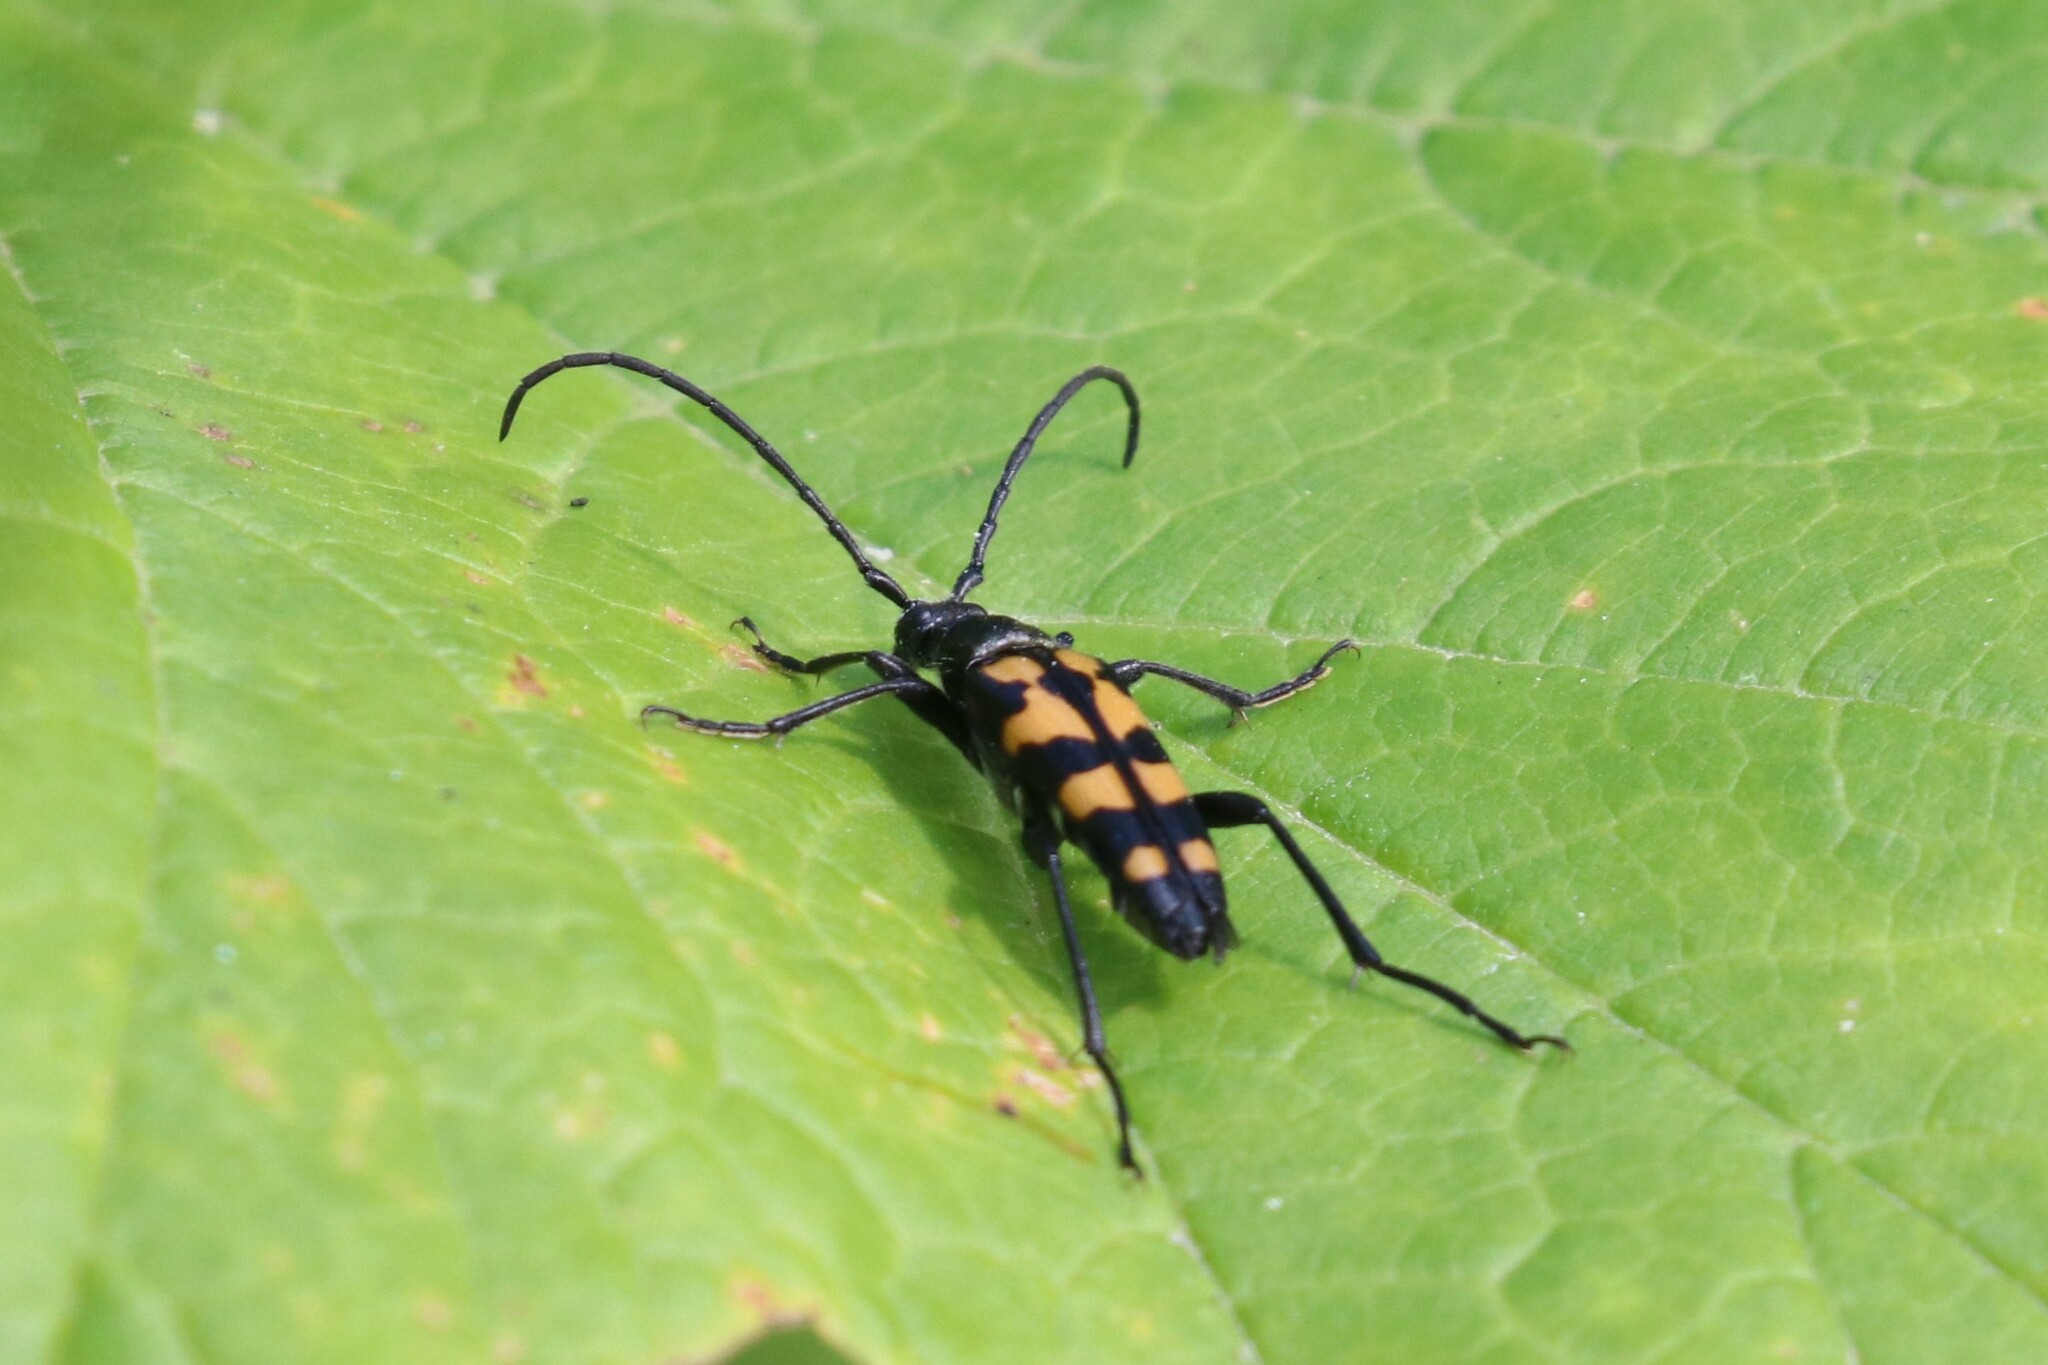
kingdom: Animalia
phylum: Arthropoda
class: Insecta
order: Coleoptera
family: Cerambycidae
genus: Leptura
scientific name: Leptura quadrifasciata
